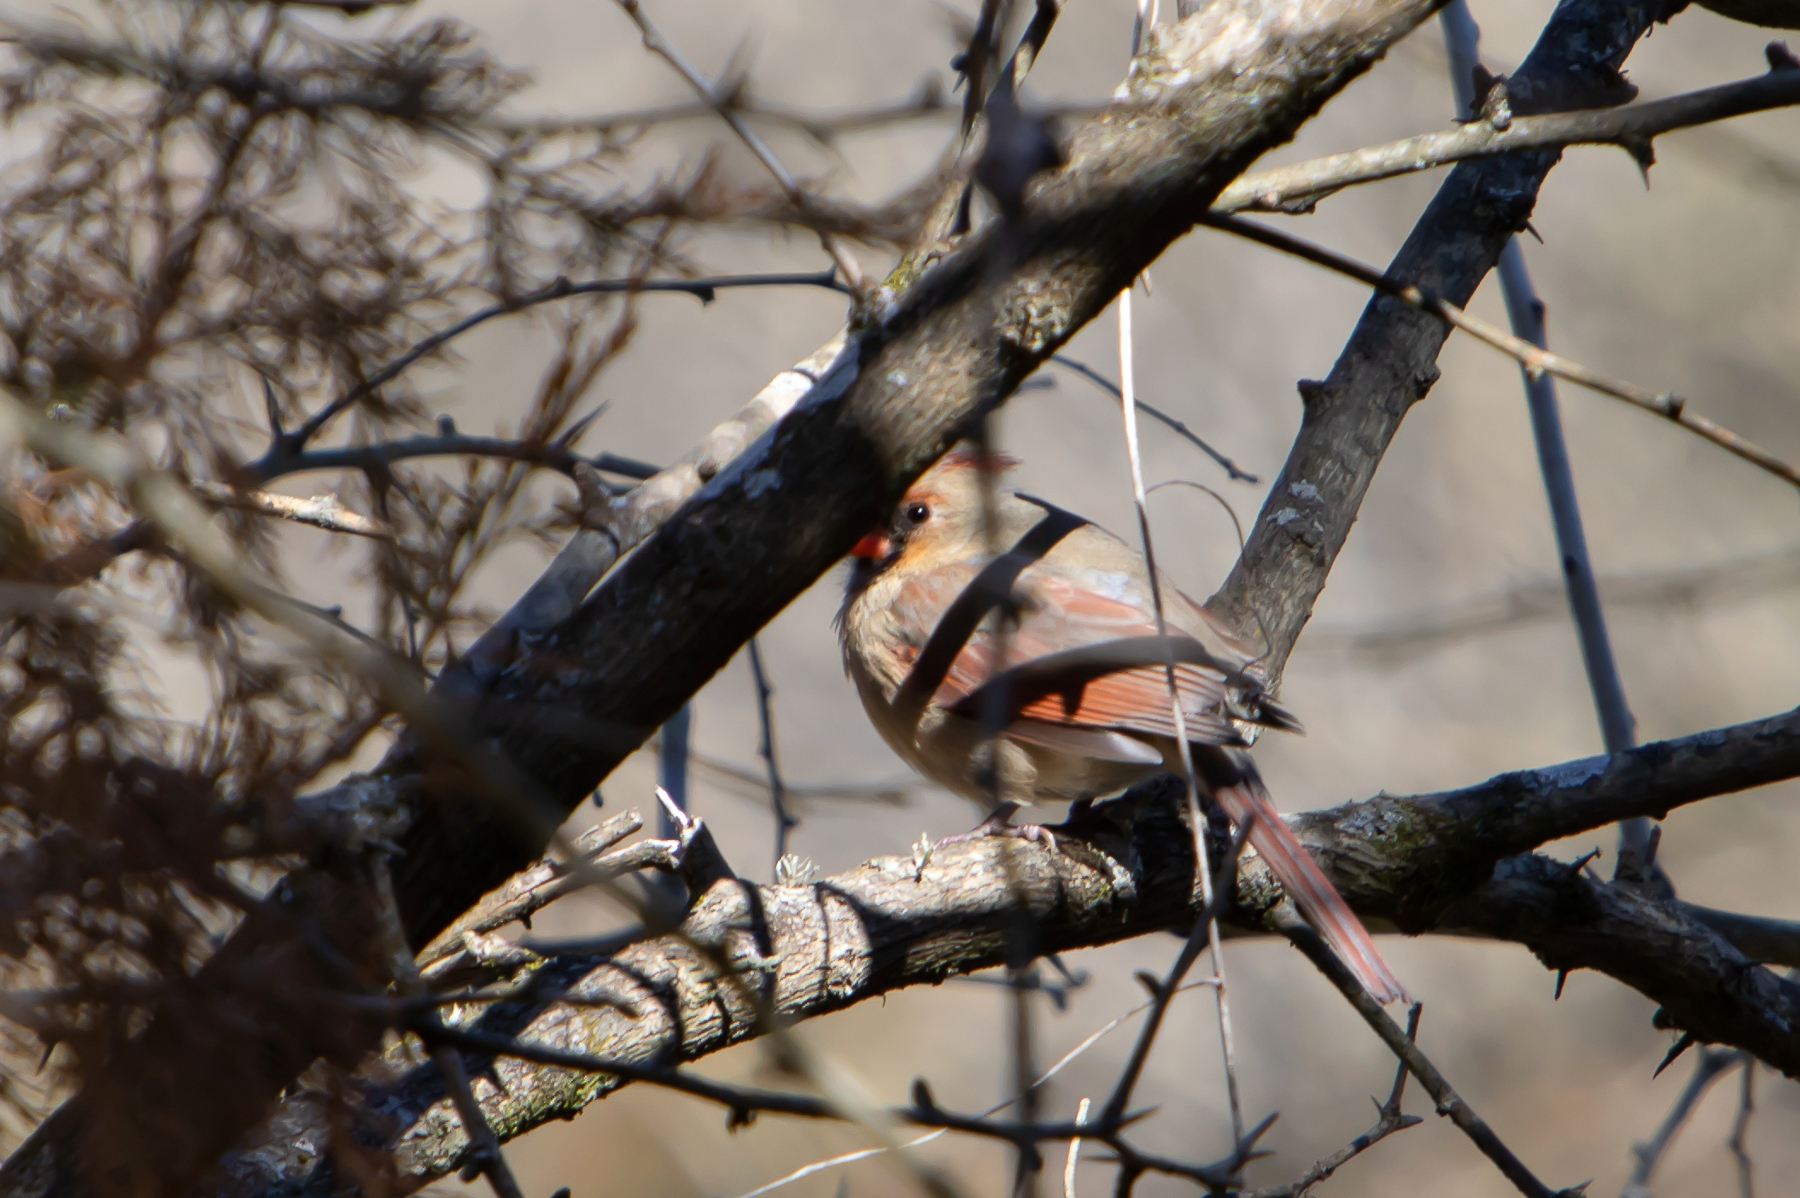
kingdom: Animalia
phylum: Chordata
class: Aves
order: Passeriformes
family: Cardinalidae
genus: Cardinalis
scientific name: Cardinalis cardinalis
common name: Northern cardinal
